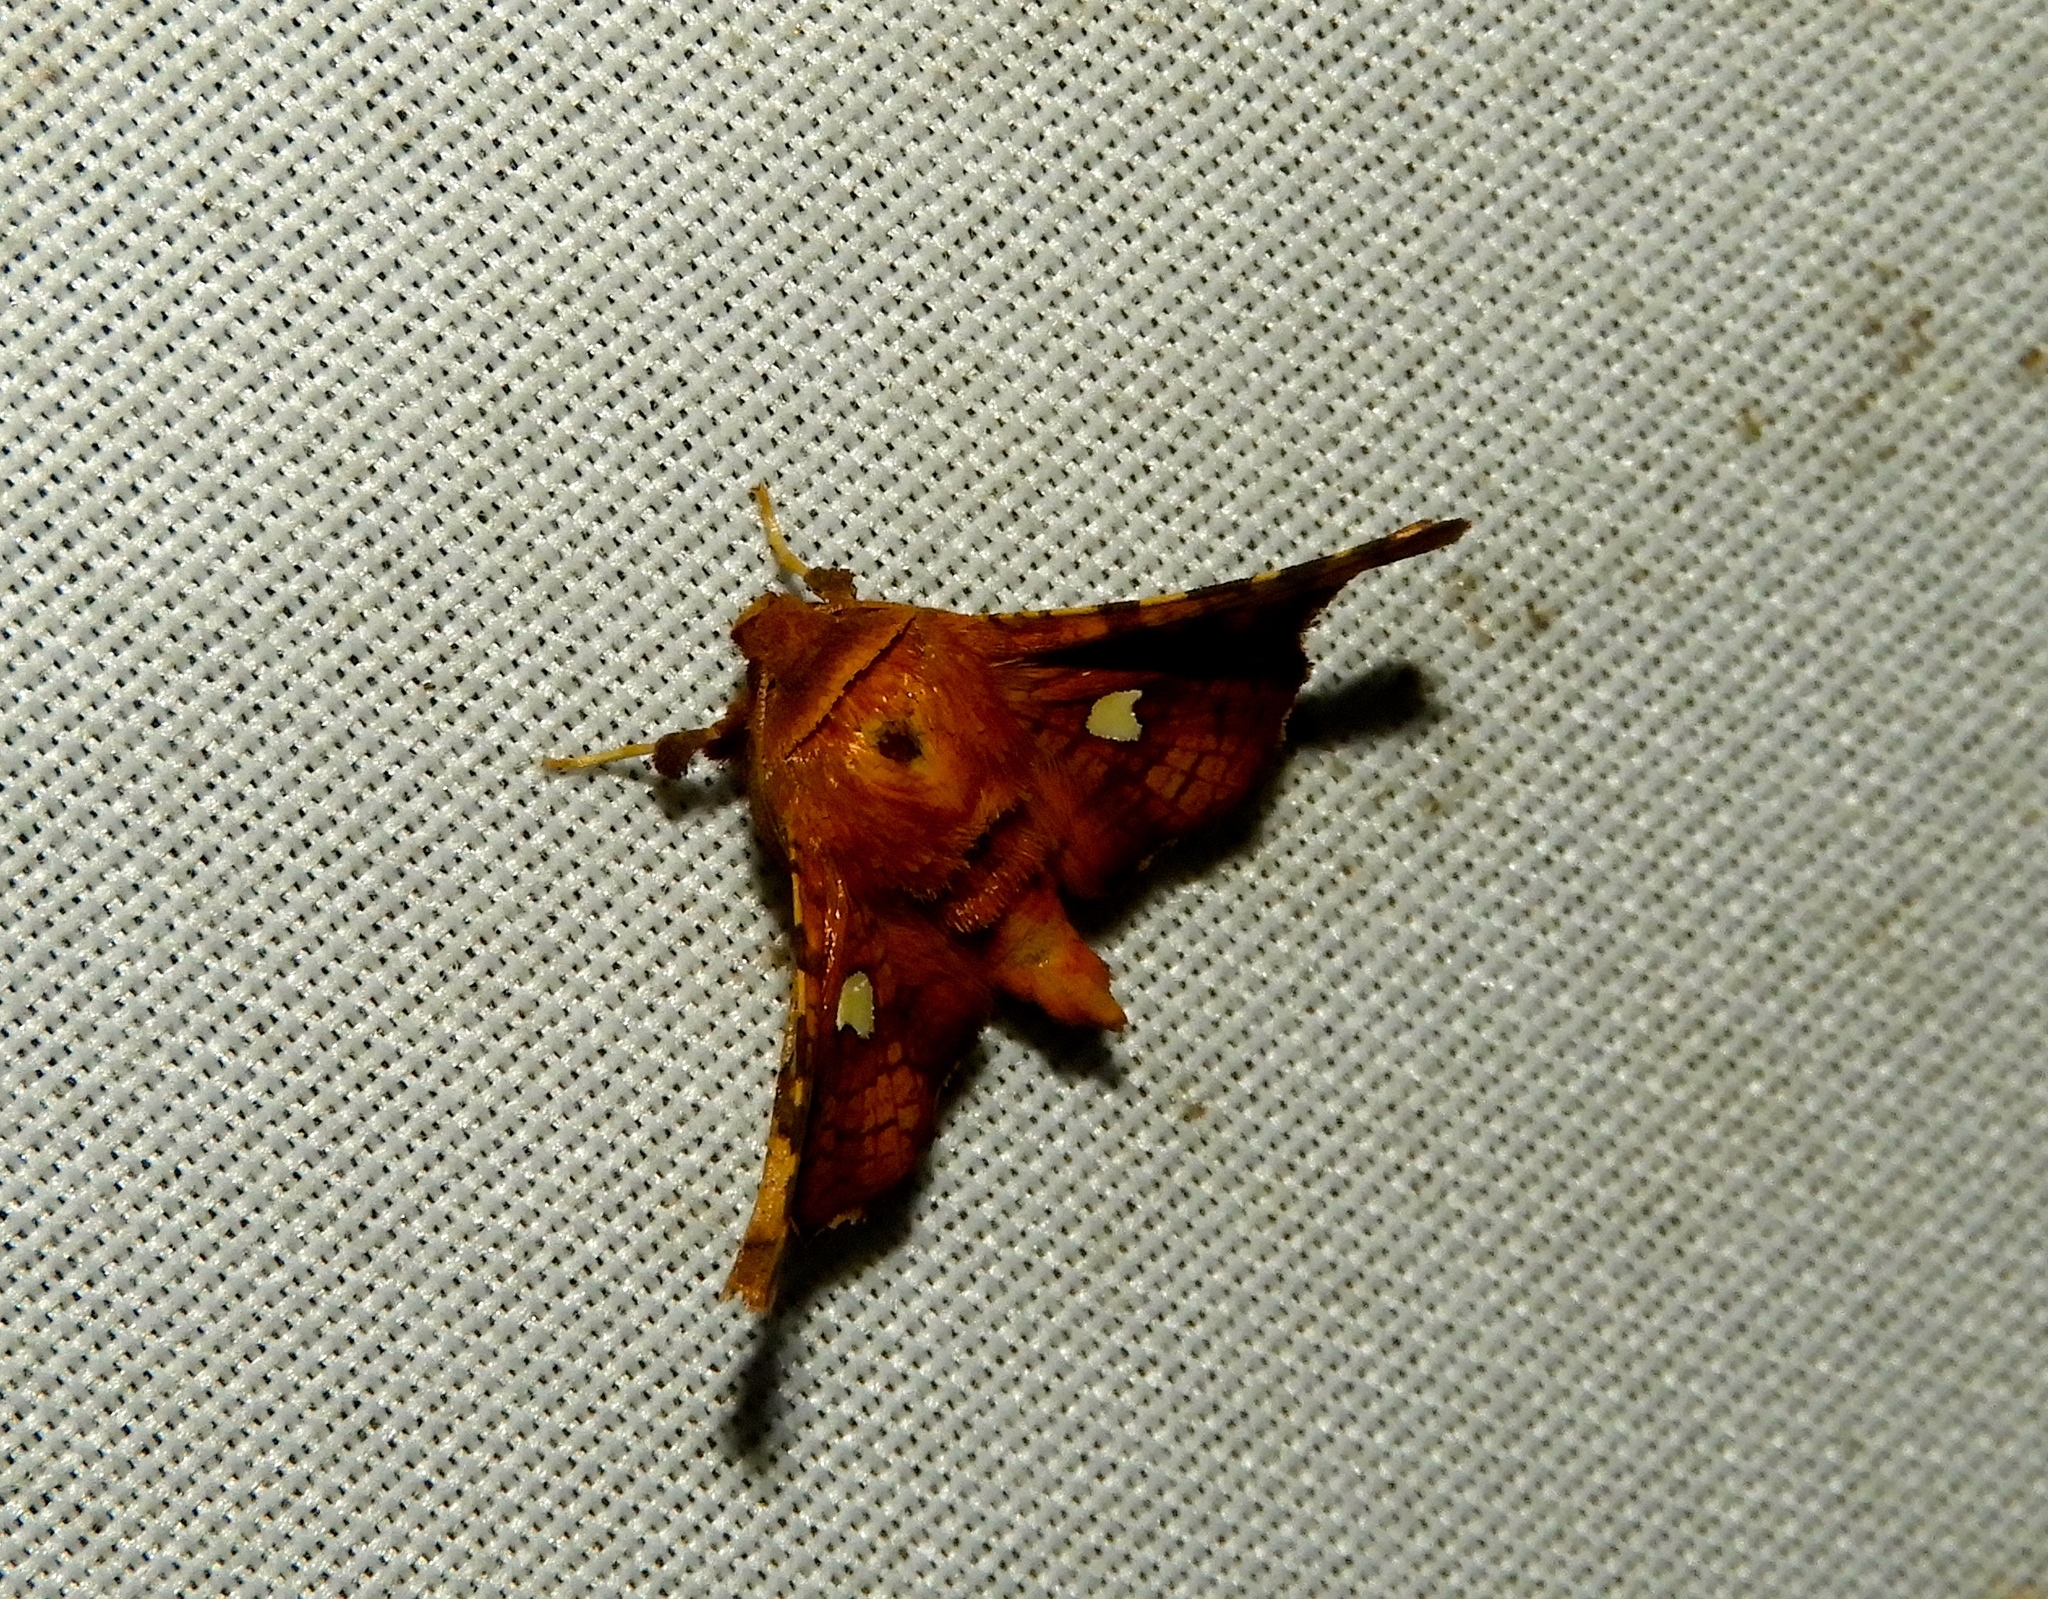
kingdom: Animalia
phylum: Arthropoda
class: Insecta
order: Lepidoptera
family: Thyrididae
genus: Dysodia
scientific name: Dysodia
